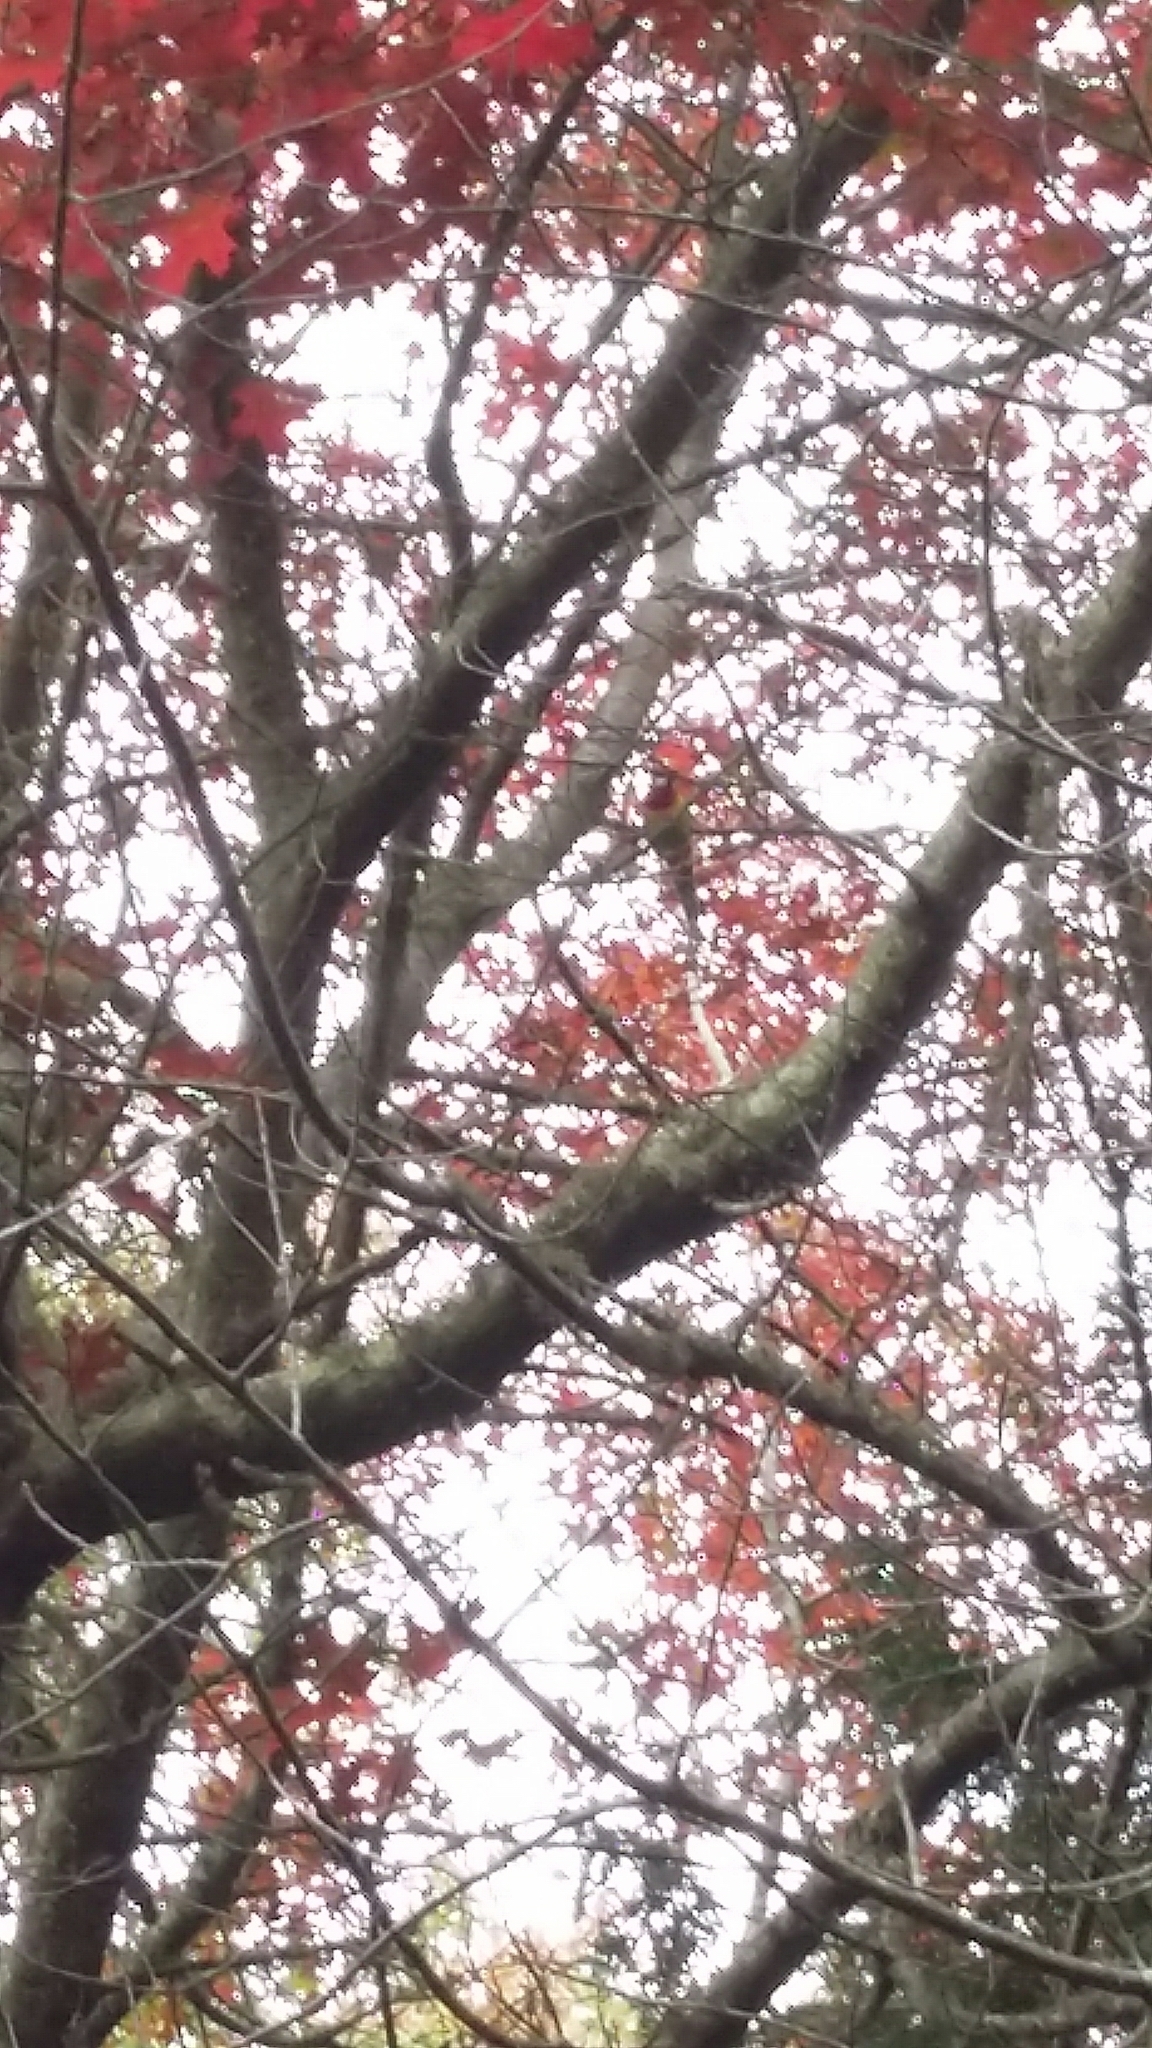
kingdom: Animalia
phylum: Chordata
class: Aves
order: Psittaciformes
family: Psittacidae
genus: Platycercus
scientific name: Platycercus eximius
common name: Eastern rosella
